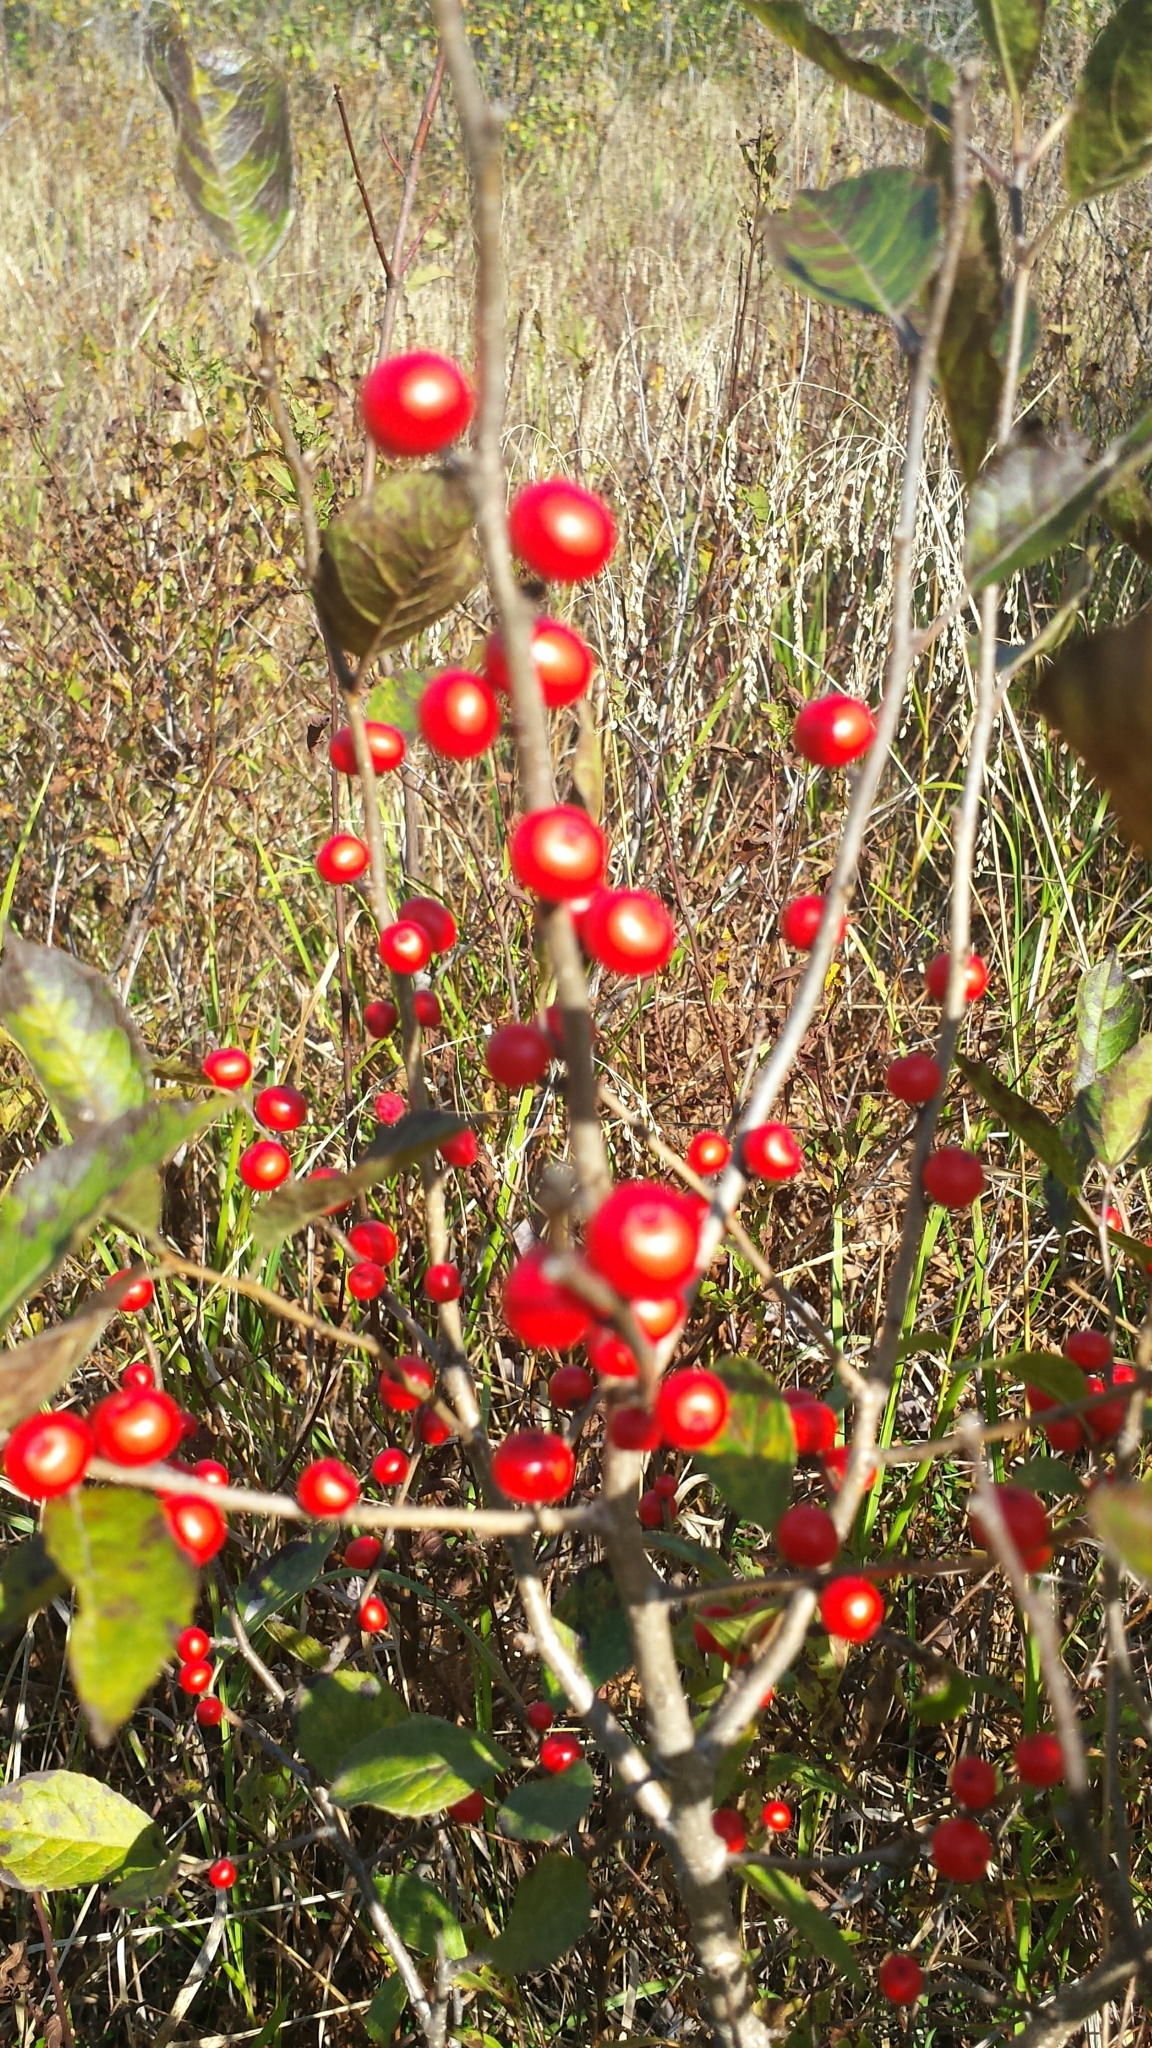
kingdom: Plantae
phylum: Tracheophyta
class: Magnoliopsida
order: Aquifoliales
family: Aquifoliaceae
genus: Ilex
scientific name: Ilex verticillata
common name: Virginia winterberry
